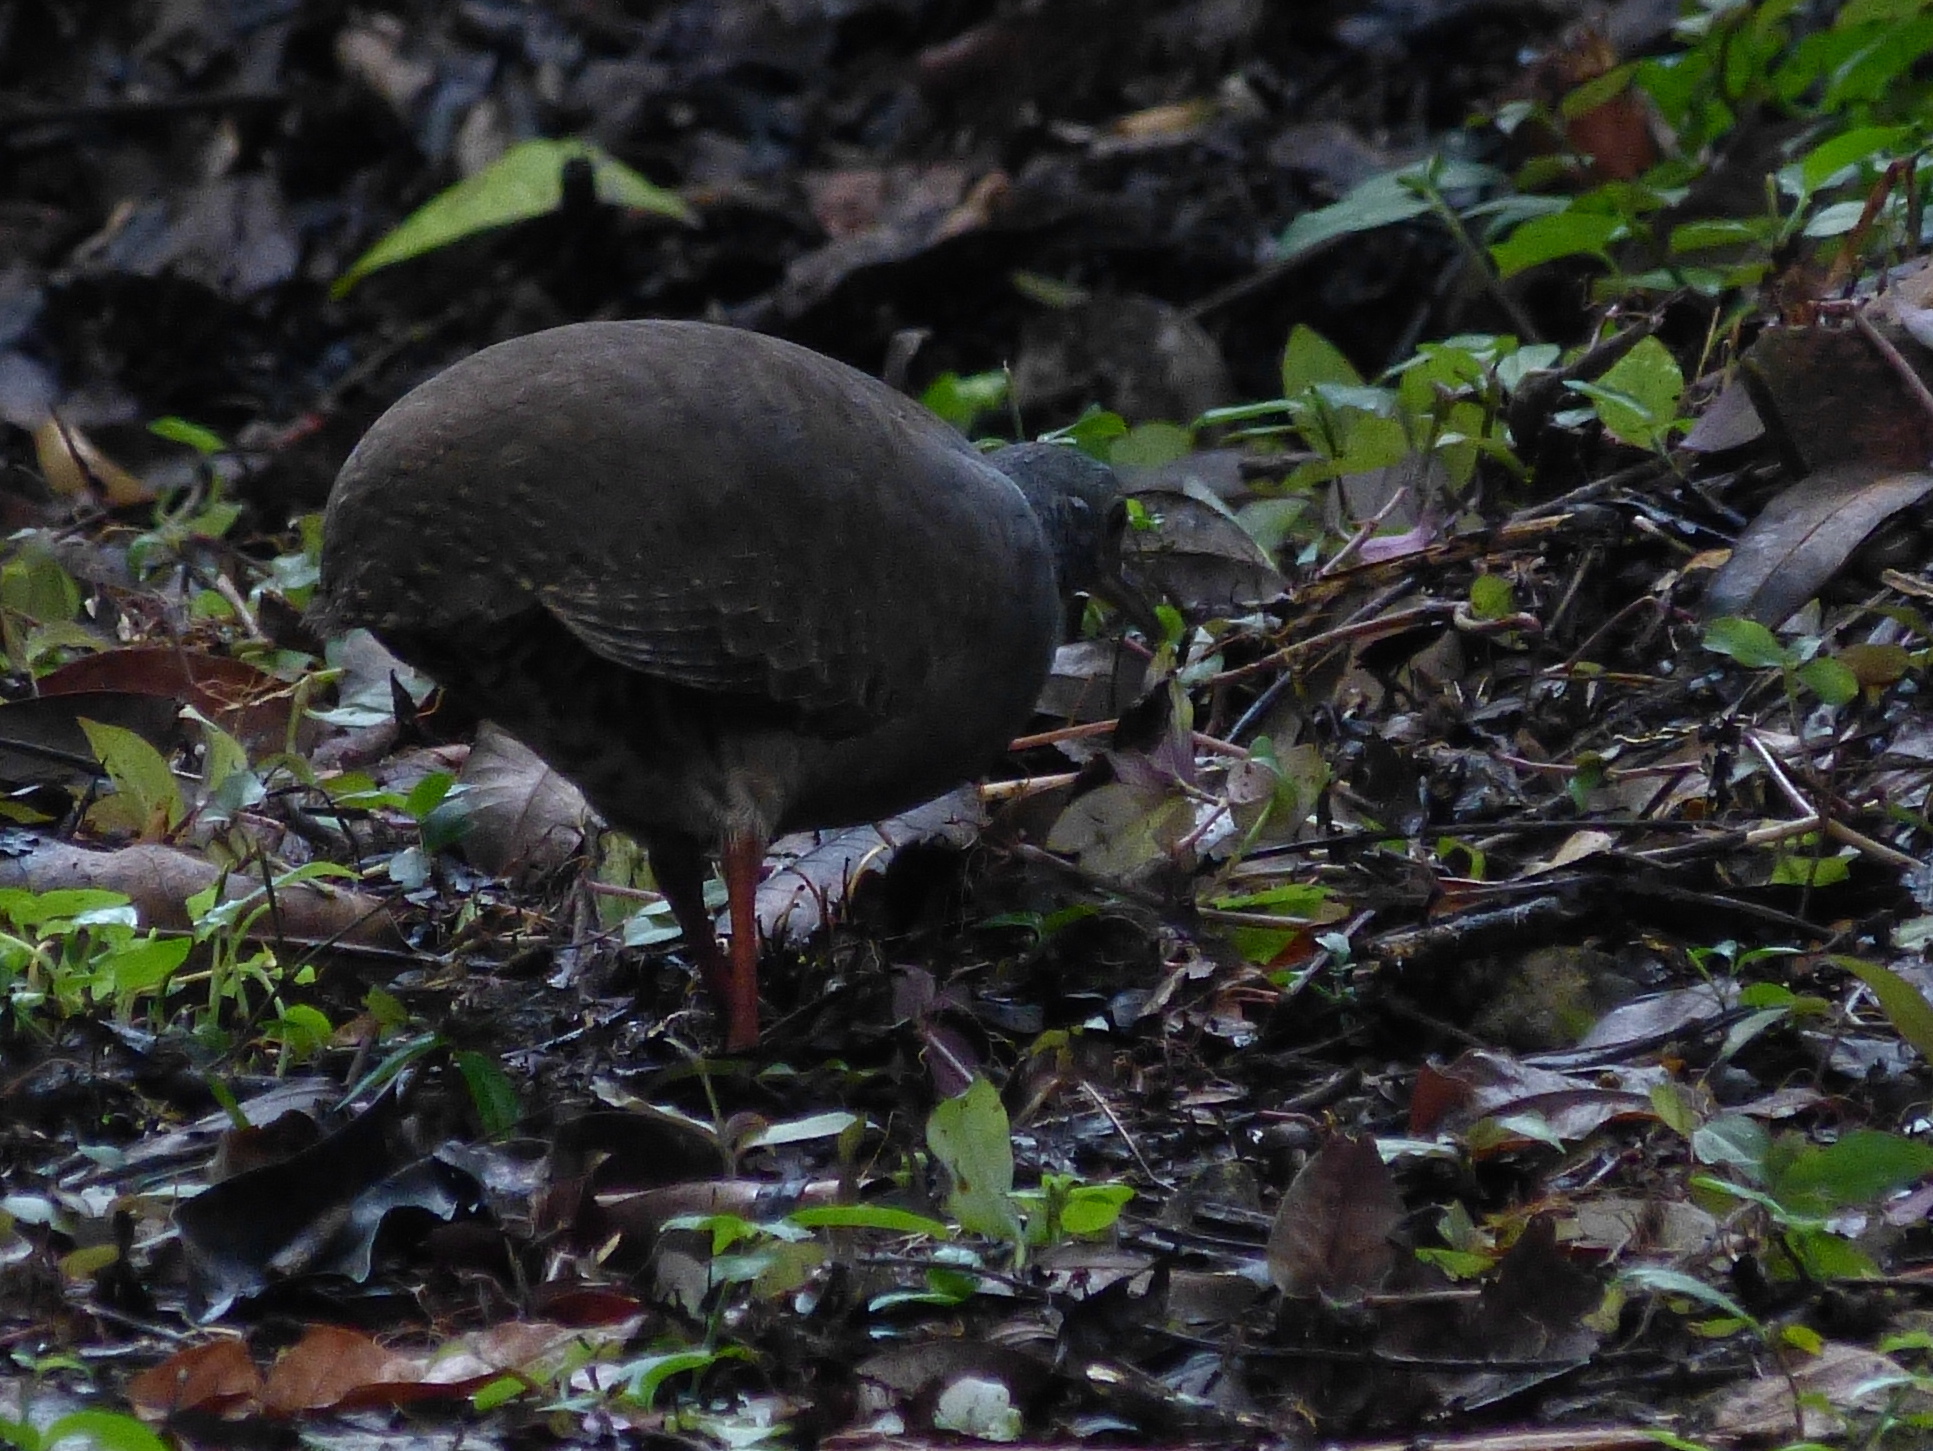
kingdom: Animalia
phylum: Chordata
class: Aves
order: Tinamiformes
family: Tinamidae
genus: Crypturellus
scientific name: Crypturellus boucardi
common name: Slaty-breasted tinamou
